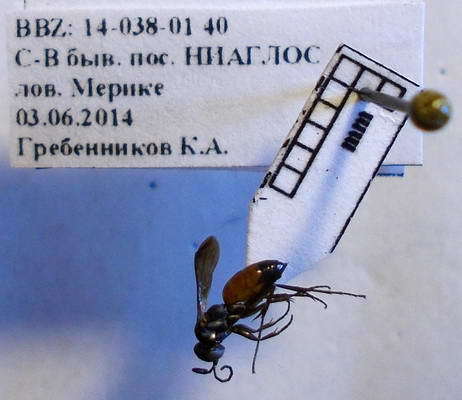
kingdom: Animalia
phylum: Arthropoda
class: Insecta
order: Hymenoptera
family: Pompilidae
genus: Tachyagetes
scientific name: Tachyagetes filicornis
